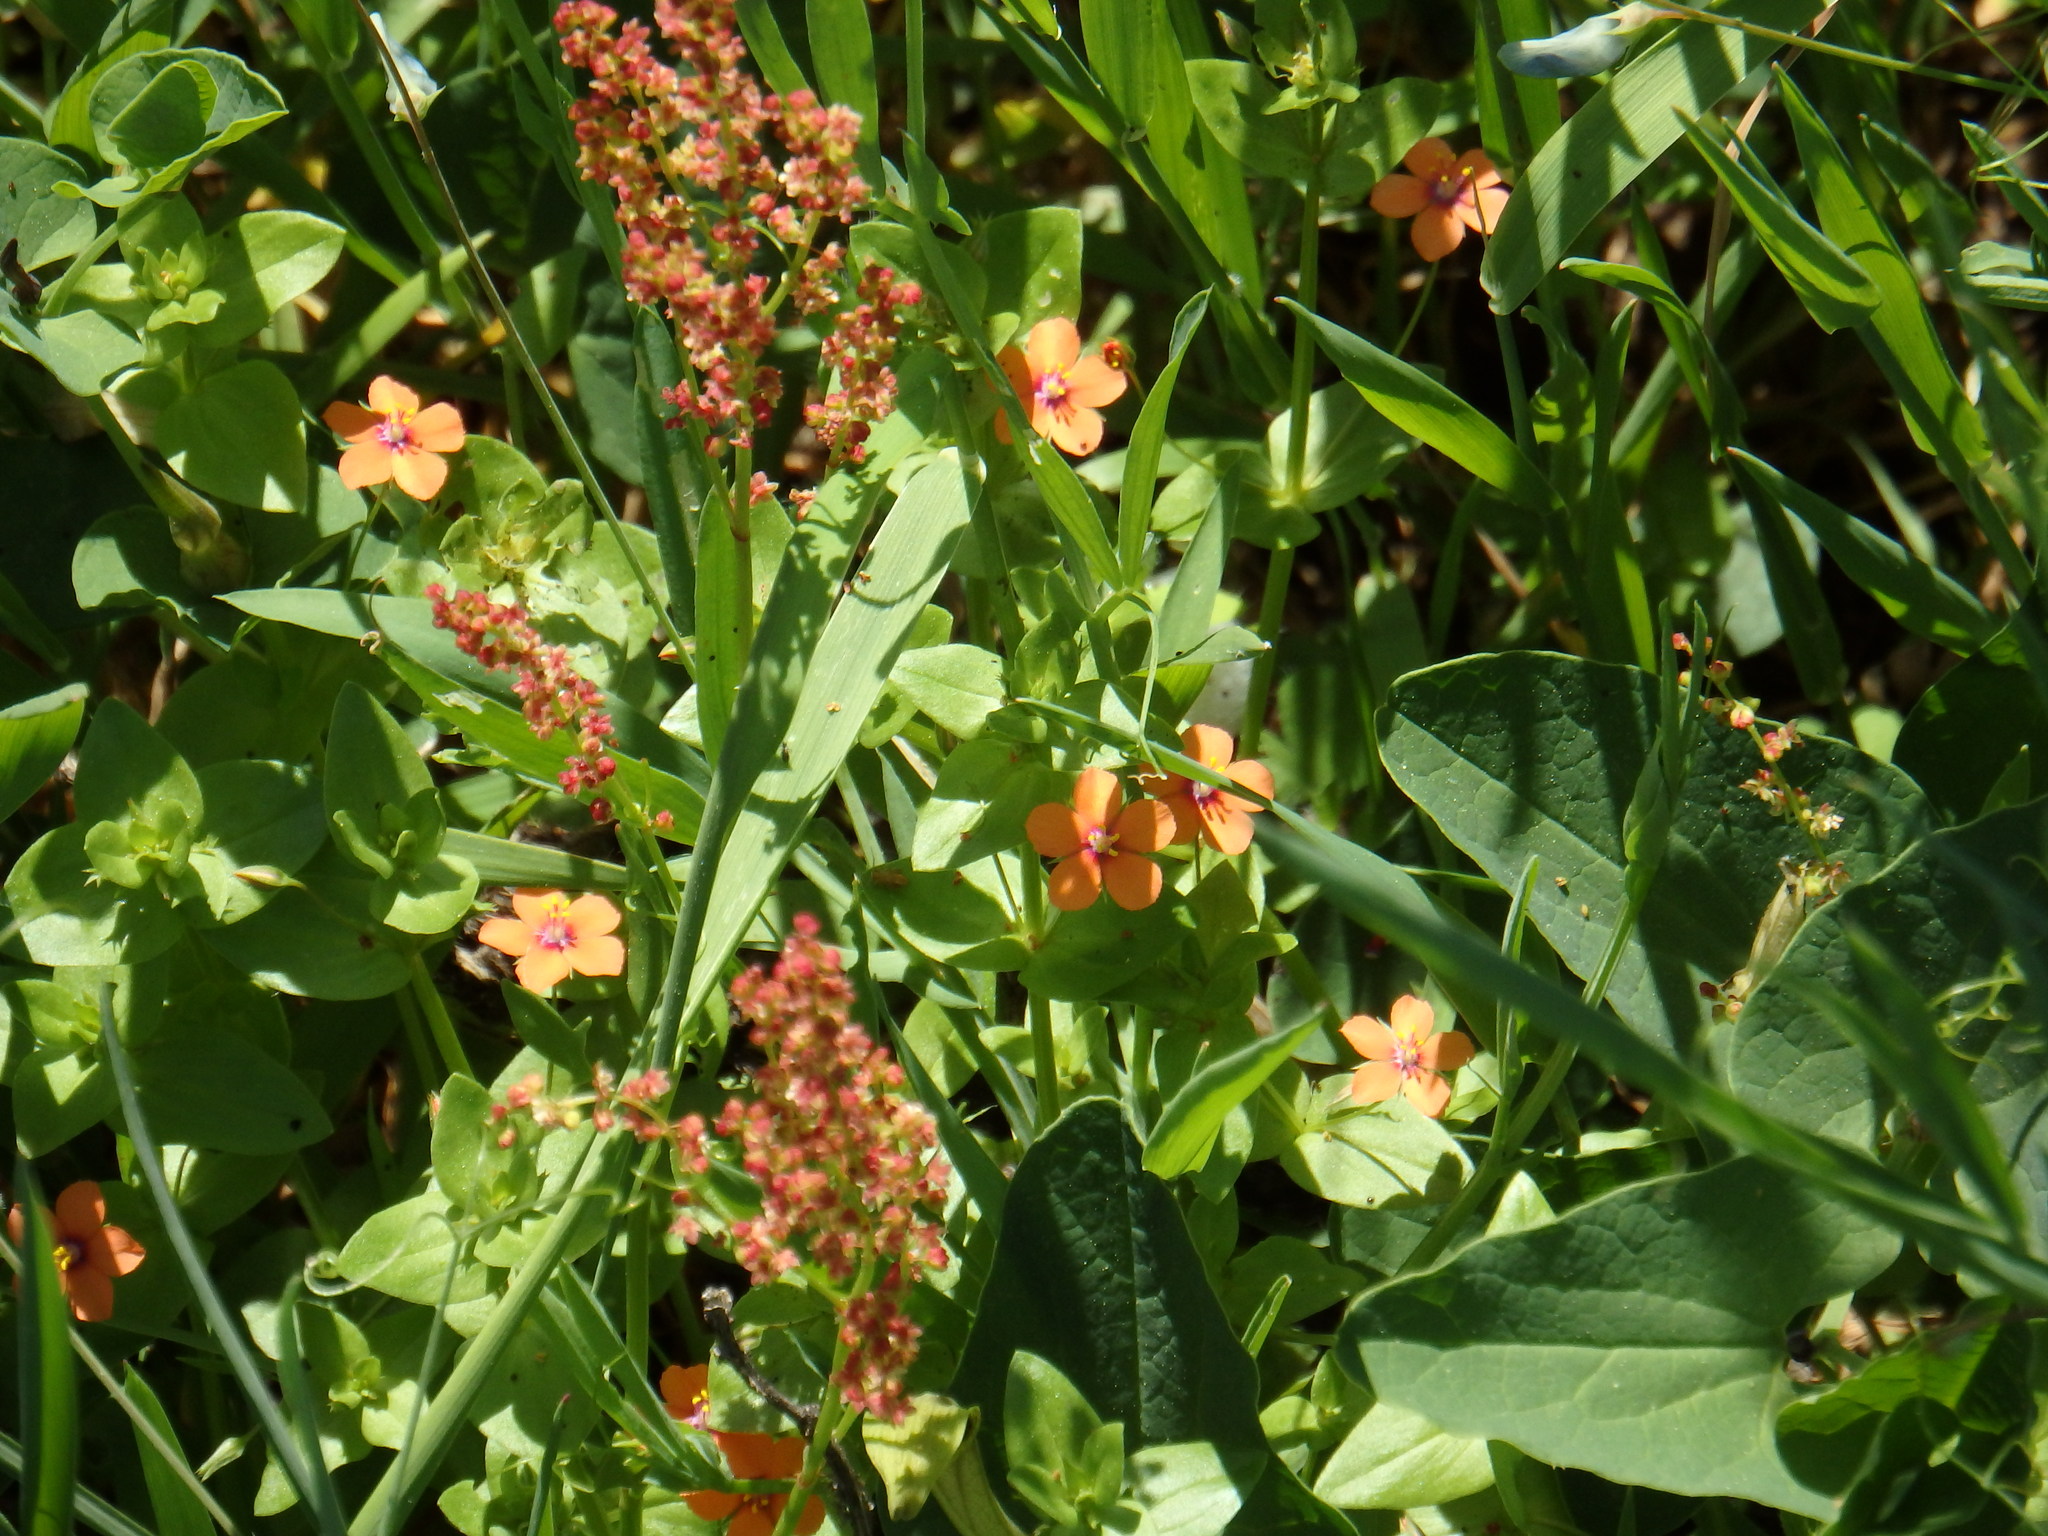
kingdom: Plantae
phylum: Tracheophyta
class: Magnoliopsida
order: Ericales
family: Primulaceae
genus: Lysimachia
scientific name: Lysimachia arvensis
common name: Scarlet pimpernel
